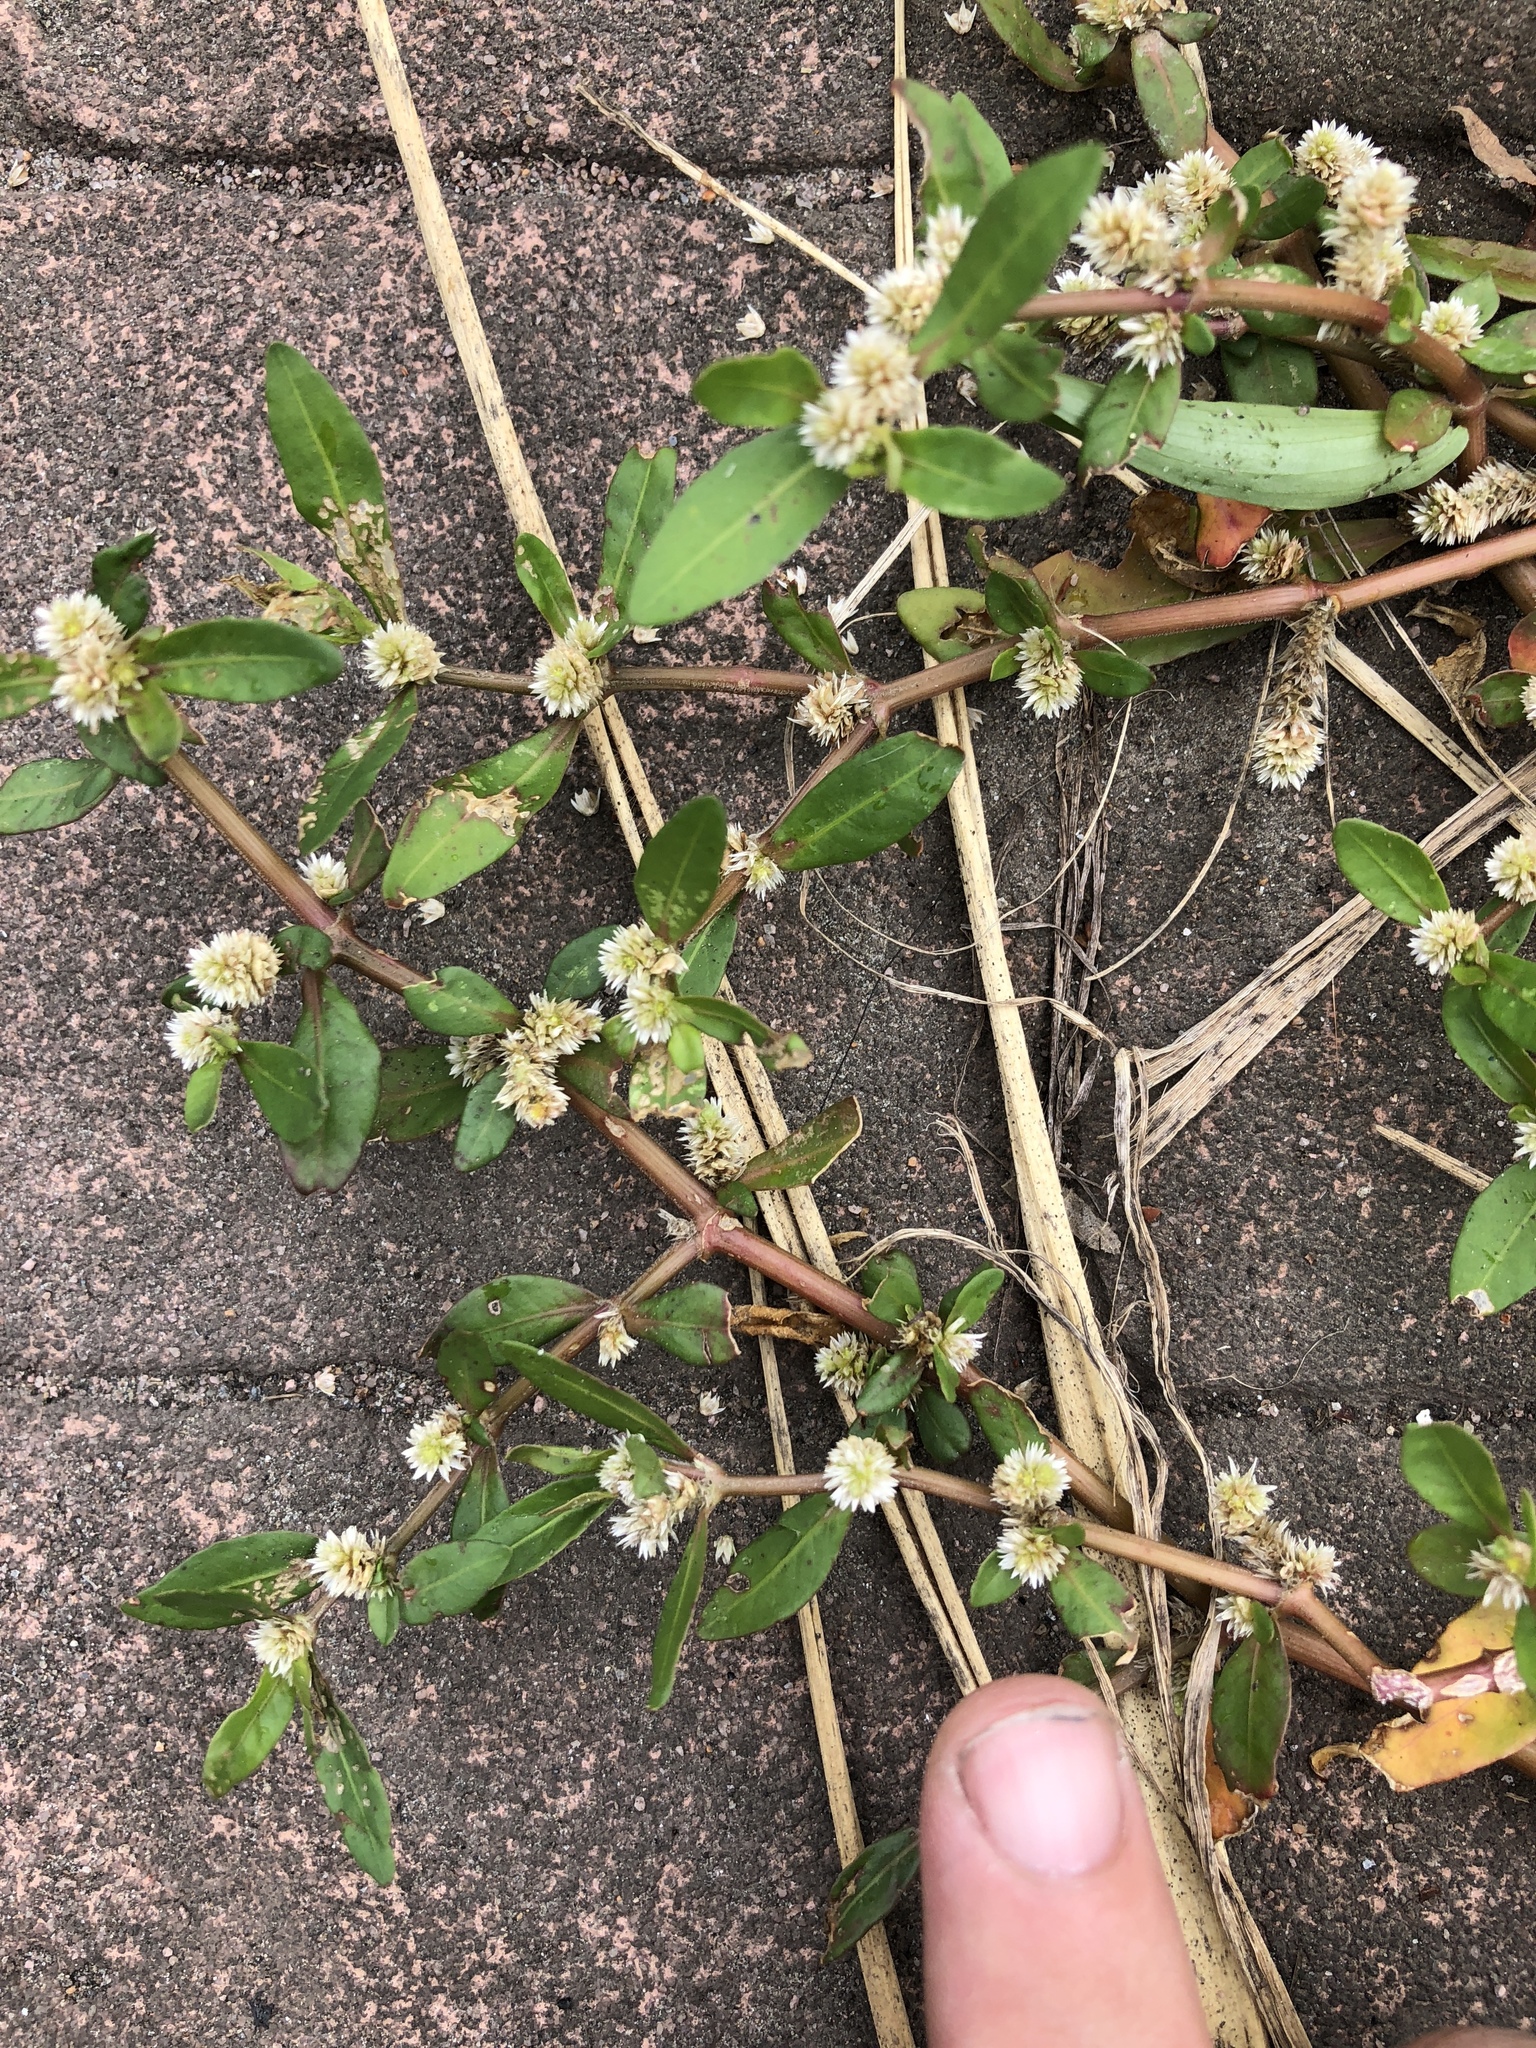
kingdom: Plantae
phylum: Tracheophyta
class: Magnoliopsida
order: Caryophyllales
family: Amaranthaceae
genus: Alternanthera
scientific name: Alternanthera bettzickiana
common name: Calico-plant
